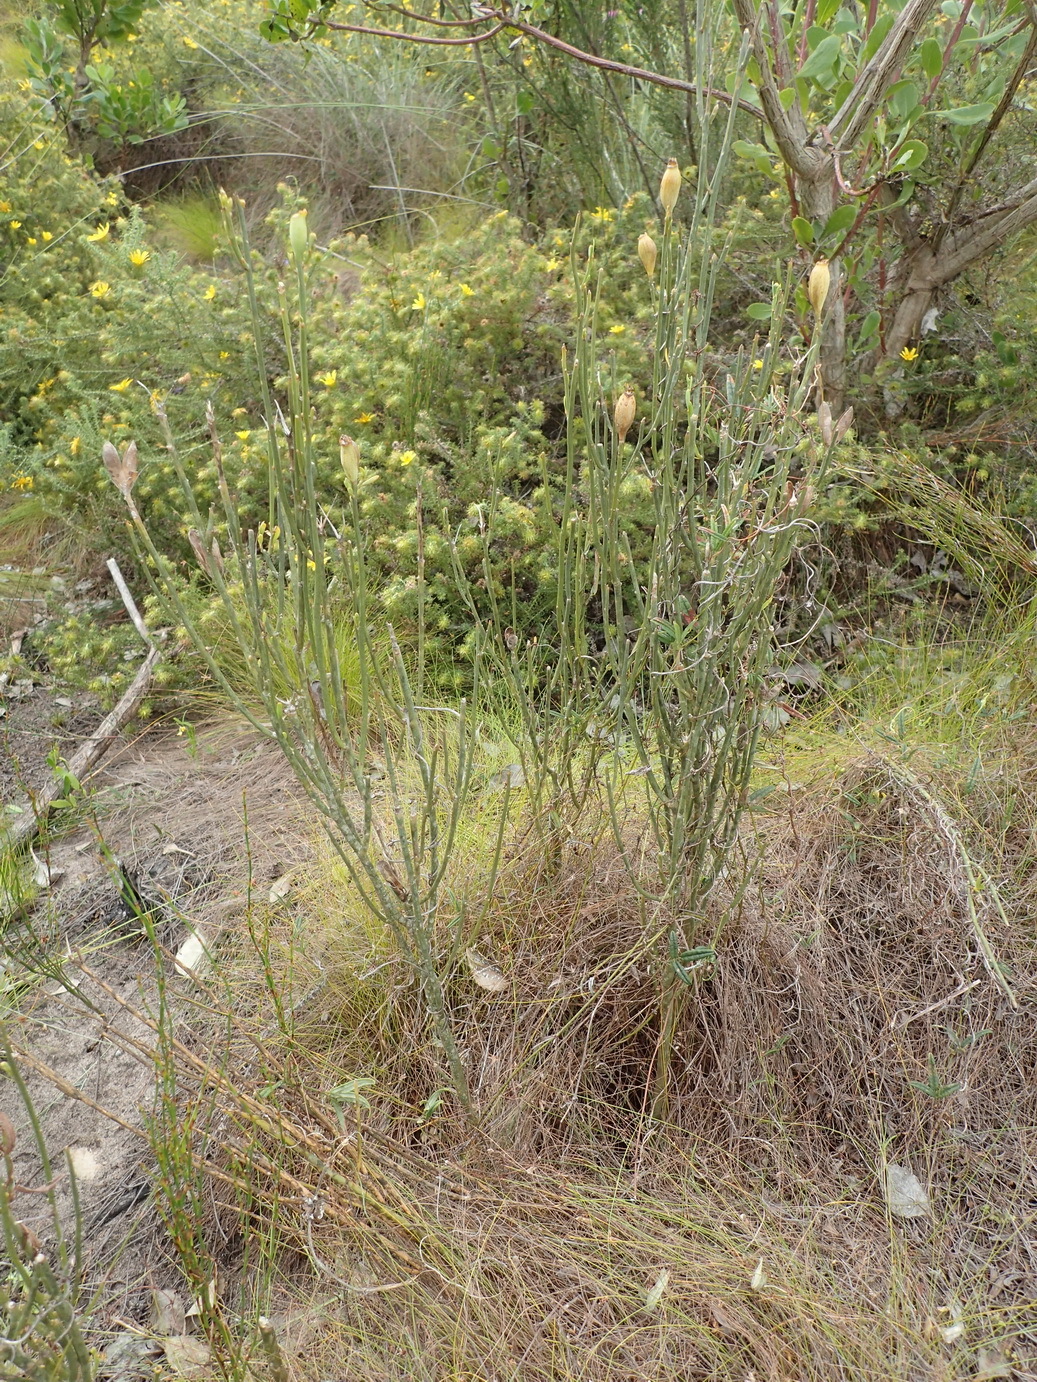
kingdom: Plantae
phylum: Tracheophyta
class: Magnoliopsida
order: Solanales
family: Montiniaceae
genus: Montinia
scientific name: Montinia caryophyllacea
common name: Wild clove-bush
